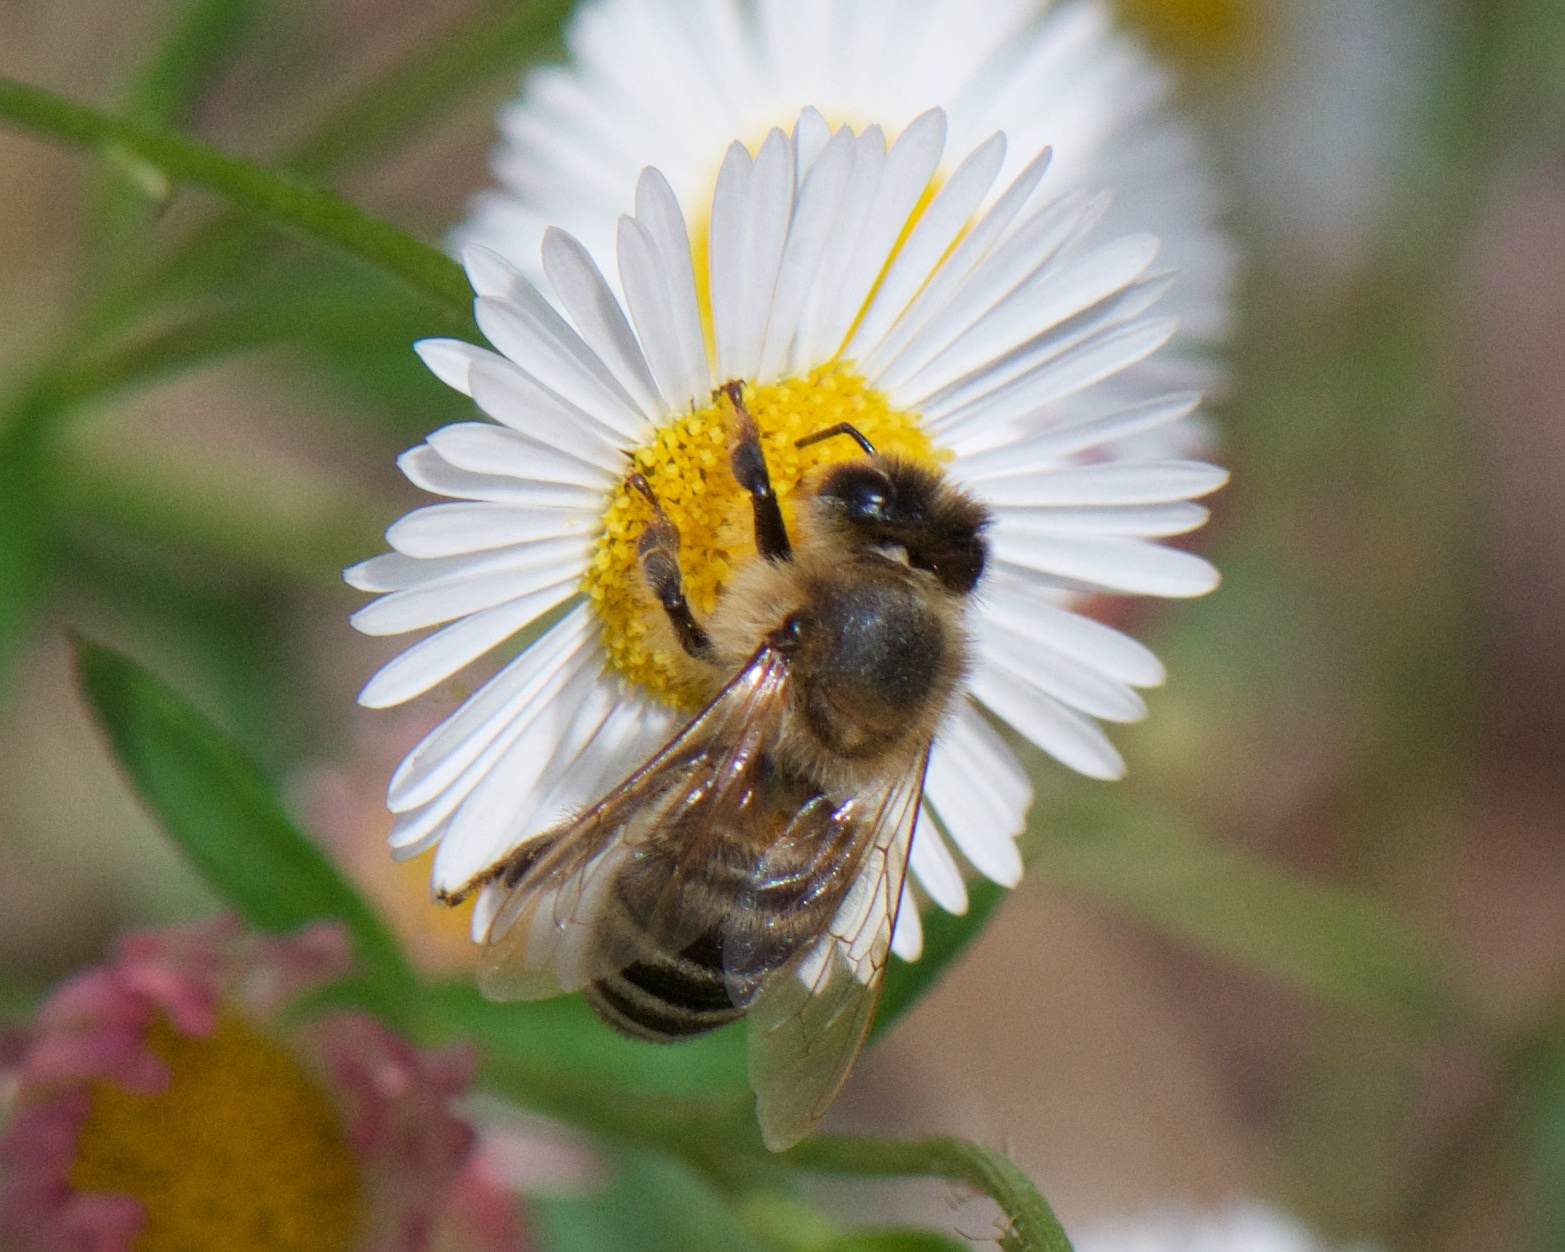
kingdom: Animalia
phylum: Arthropoda
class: Insecta
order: Hymenoptera
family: Apidae
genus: Apis
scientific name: Apis mellifera
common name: Honey bee
